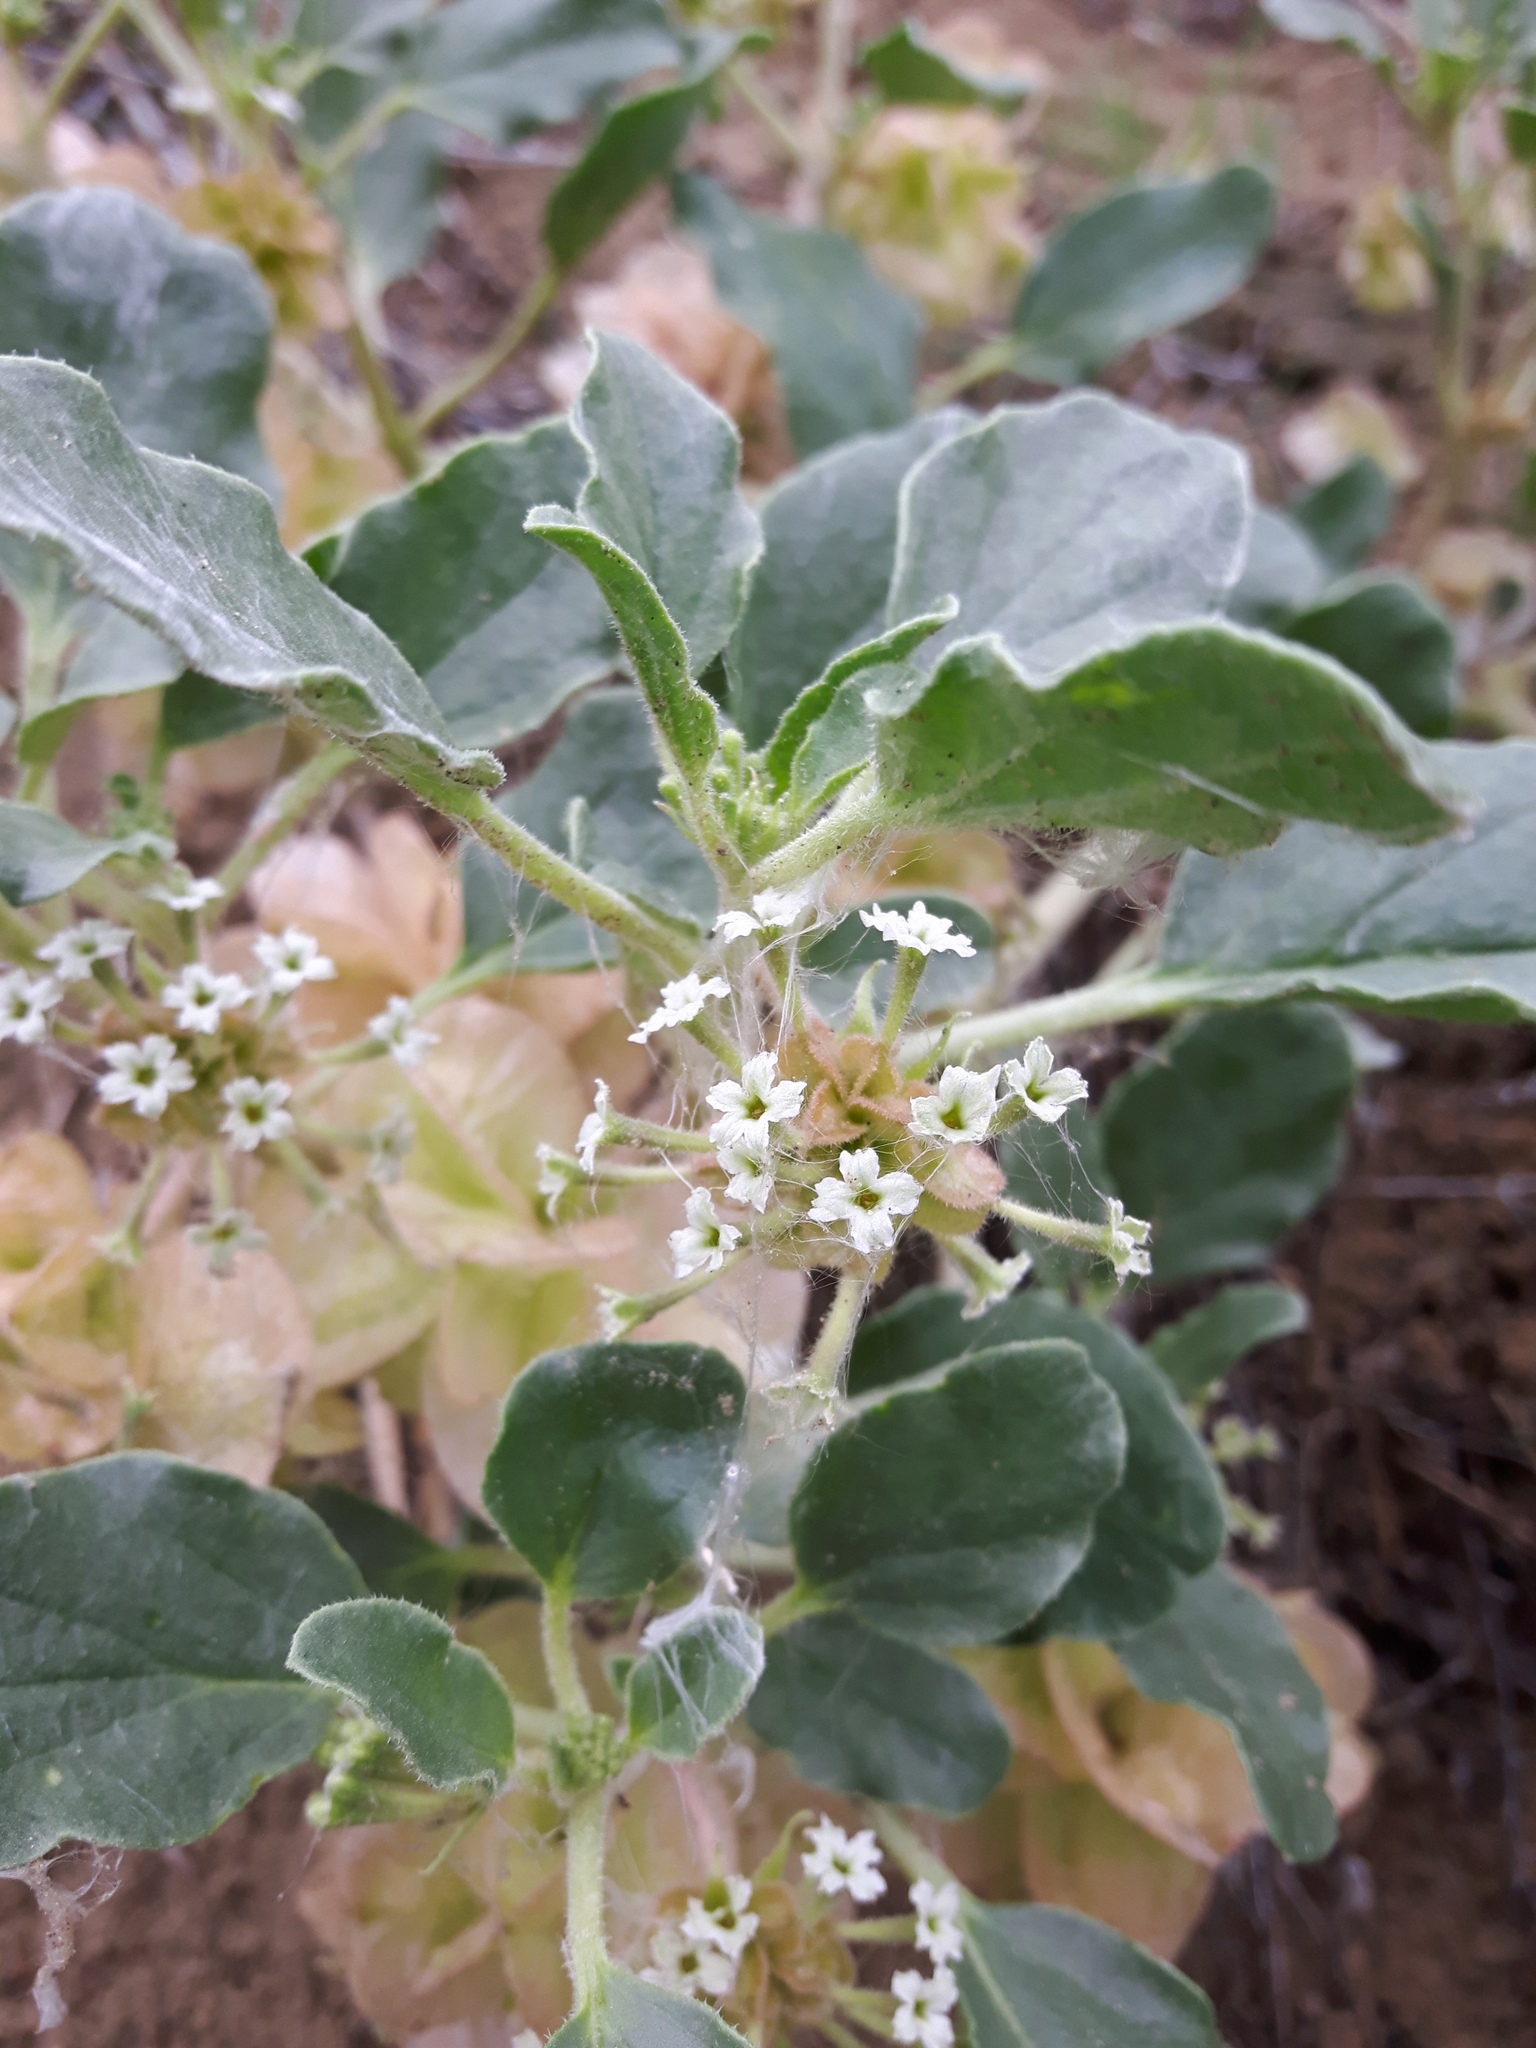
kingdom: Plantae
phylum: Tracheophyta
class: Magnoliopsida
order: Caryophyllales
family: Nyctaginaceae
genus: Tripterocalyx
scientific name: Tripterocalyx micranthus
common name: Small-flowered sand-verbena
